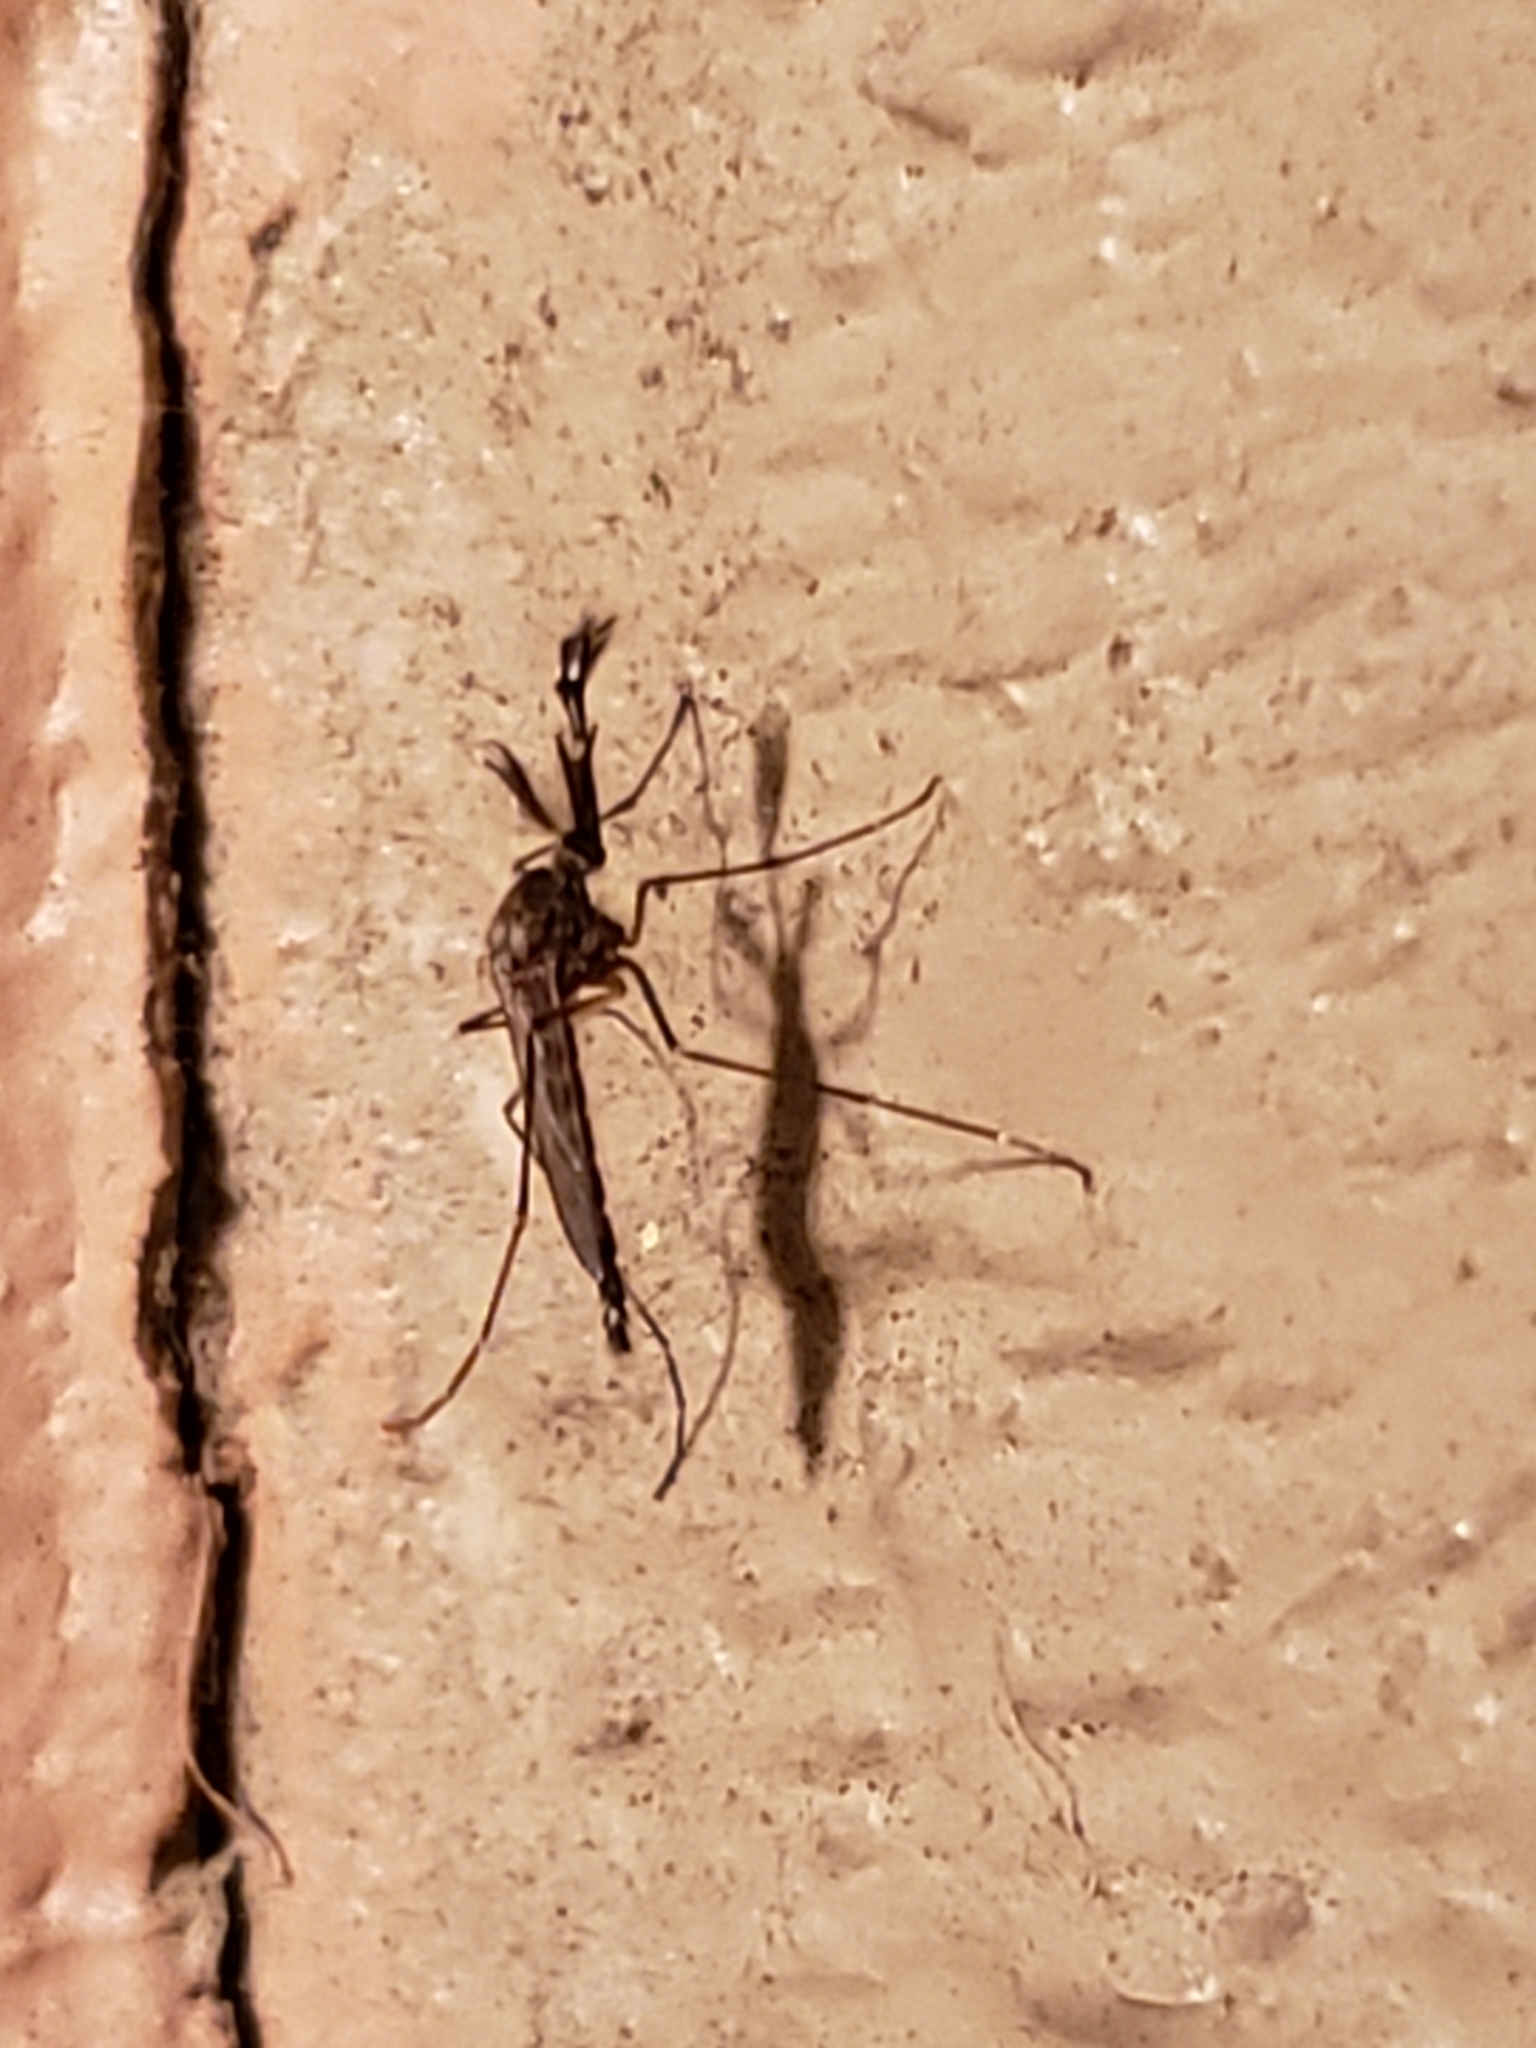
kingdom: Animalia
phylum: Arthropoda
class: Insecta
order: Diptera
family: Culicidae
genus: Aedes
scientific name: Aedes vexans
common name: Inland floodwater mosquito
